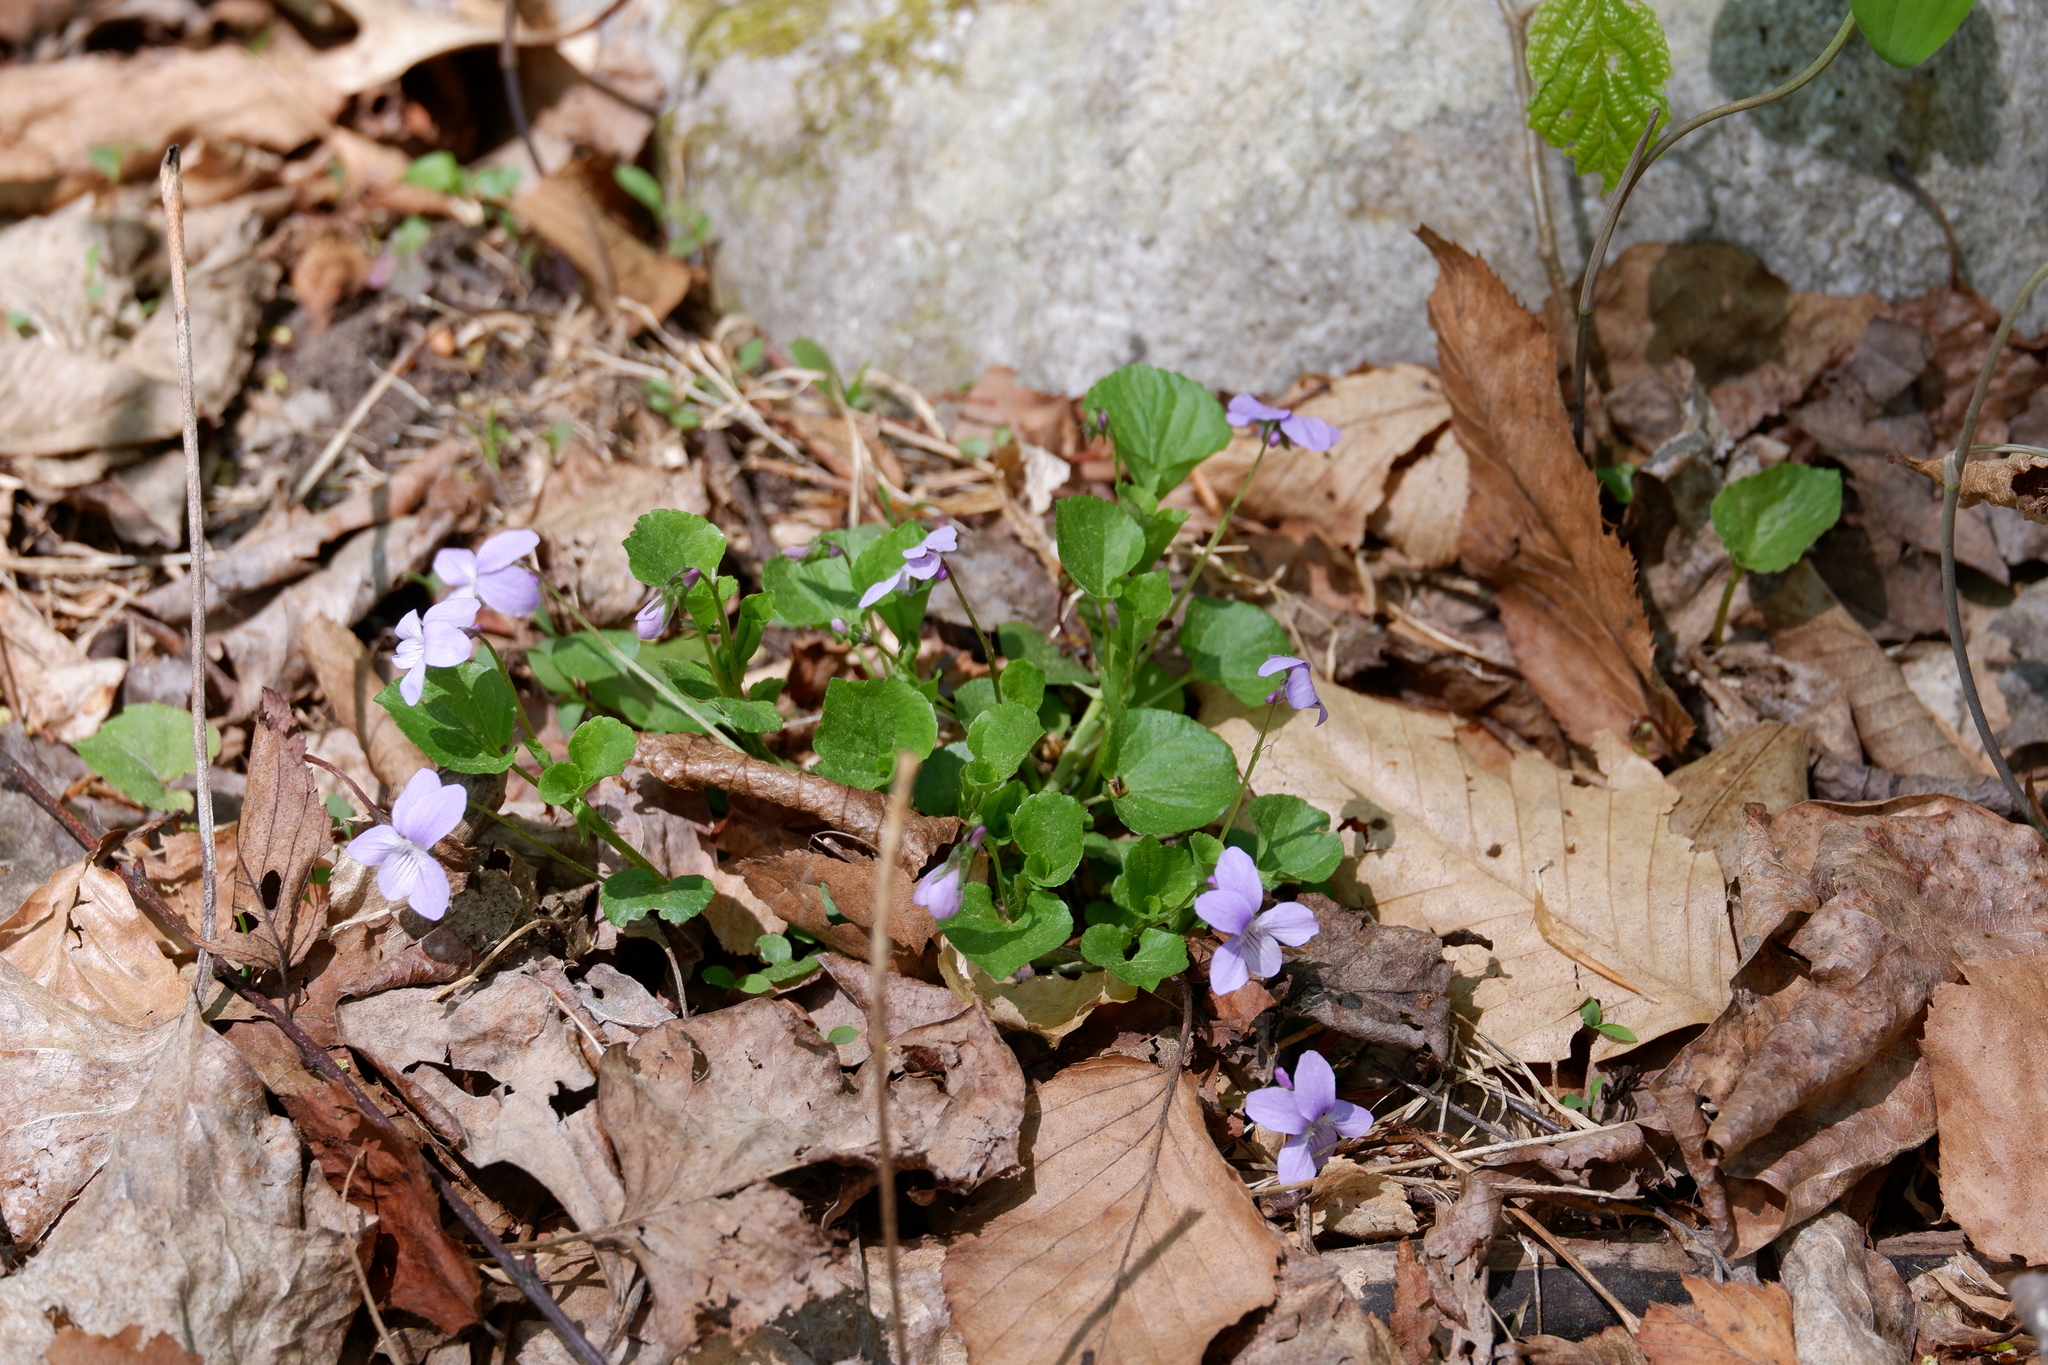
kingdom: Plantae
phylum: Tracheophyta
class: Magnoliopsida
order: Malpighiales
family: Violaceae
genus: Viola
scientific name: Viola labradorica
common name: Labrador violet
